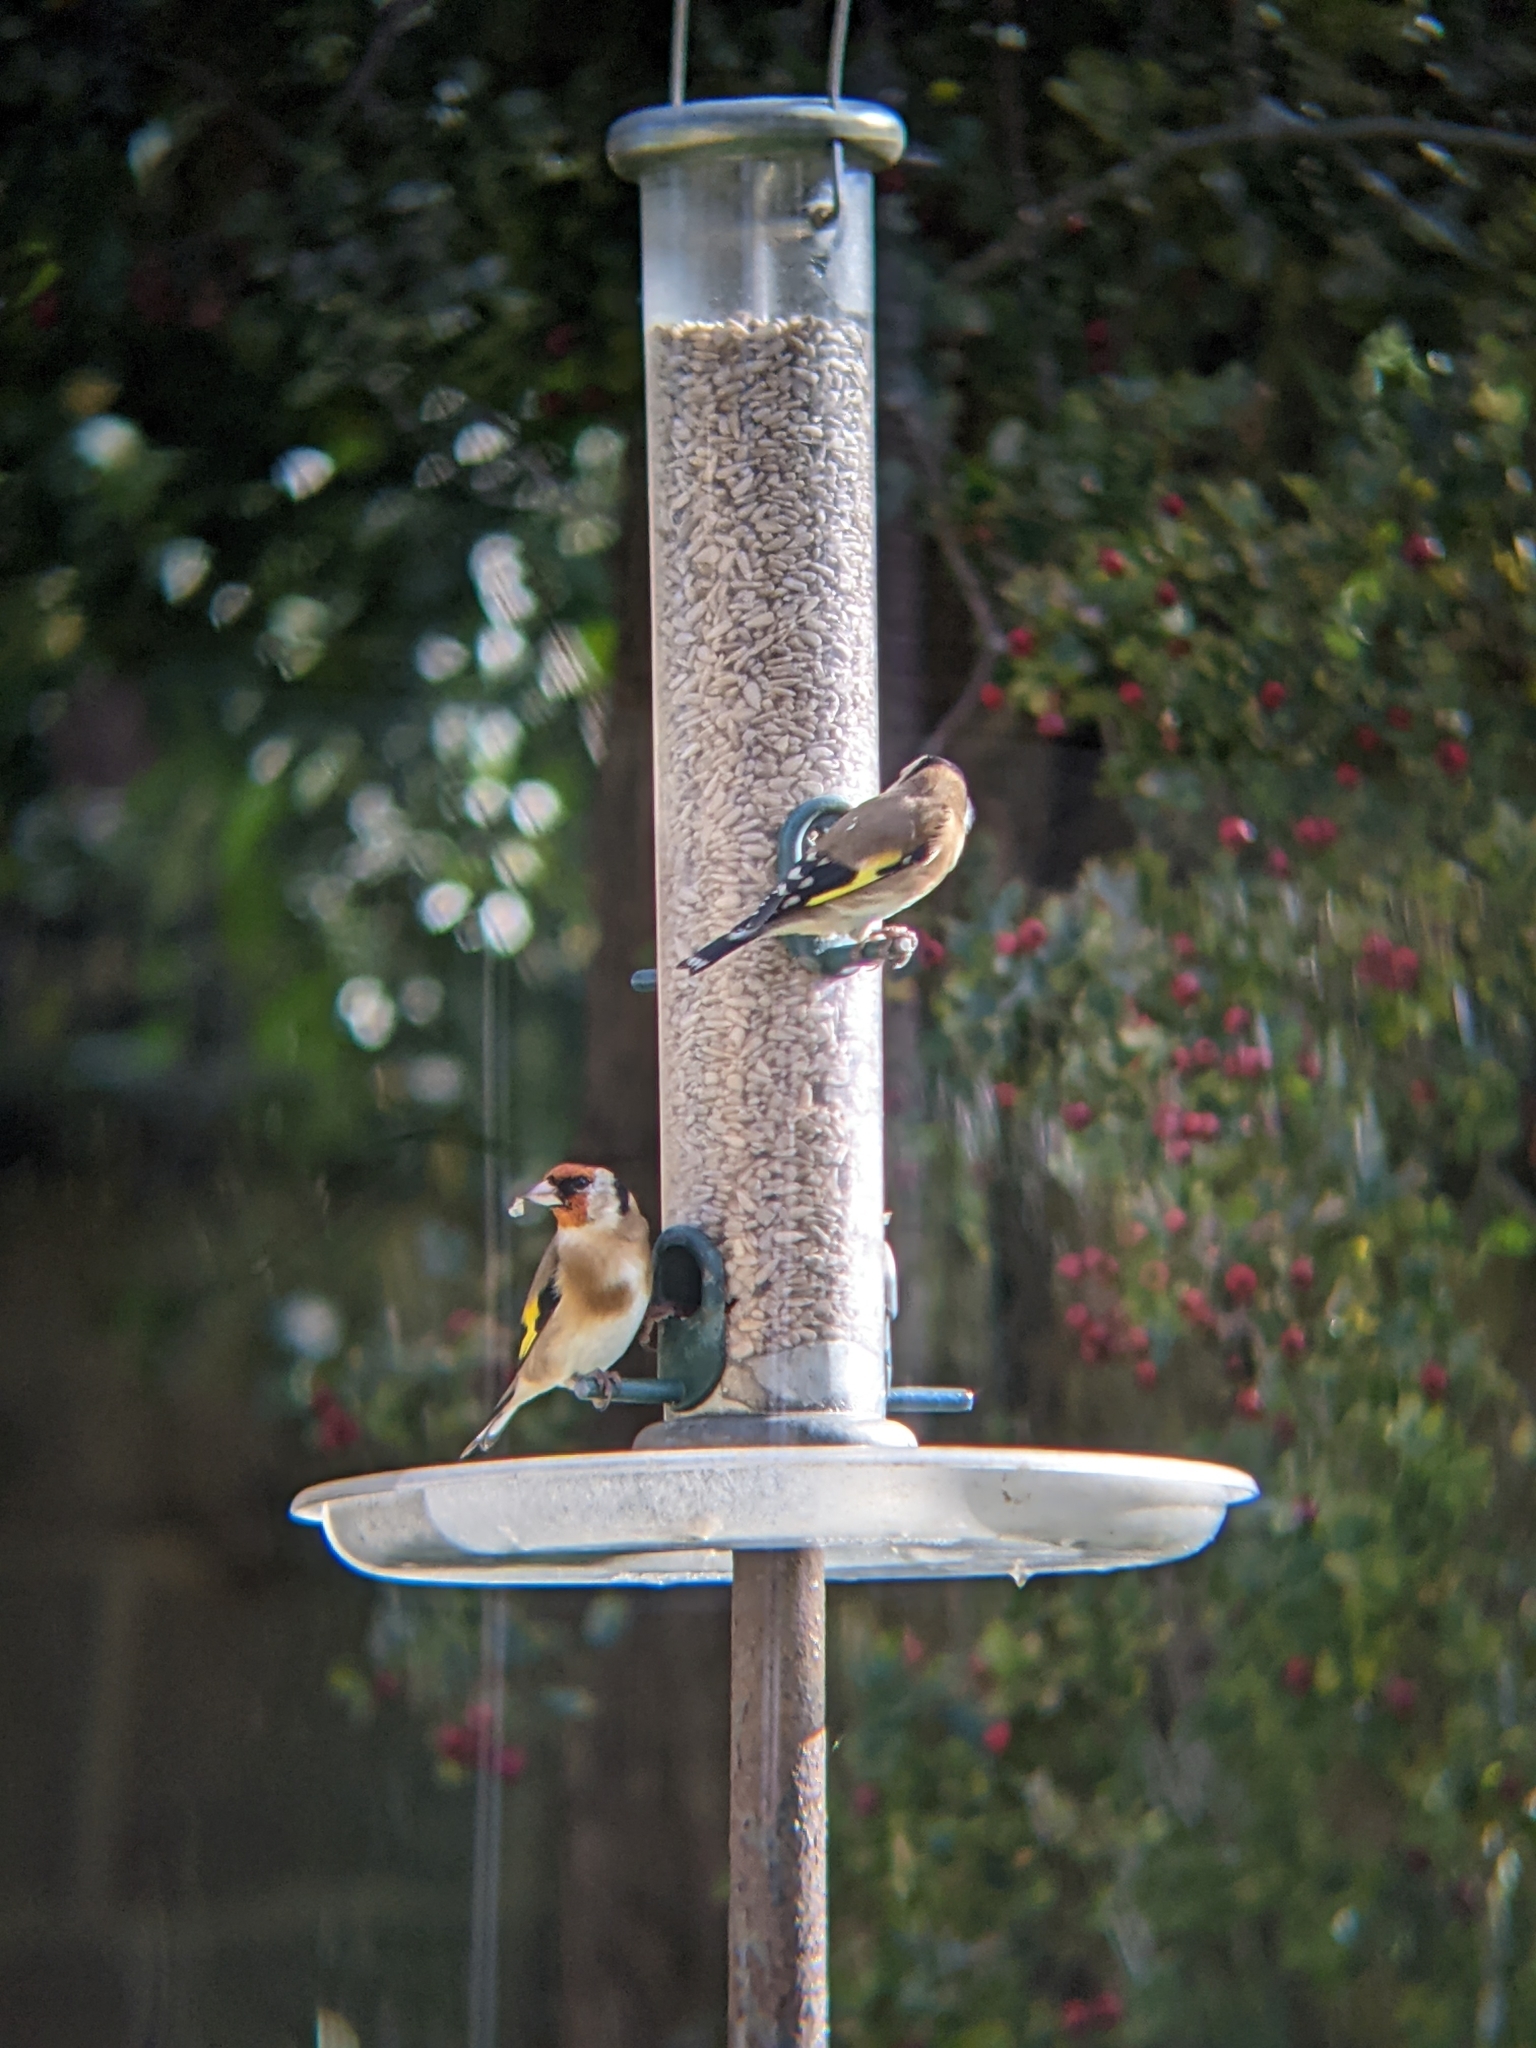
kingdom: Animalia
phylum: Chordata
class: Aves
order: Passeriformes
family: Fringillidae
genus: Carduelis
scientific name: Carduelis carduelis
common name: European goldfinch
